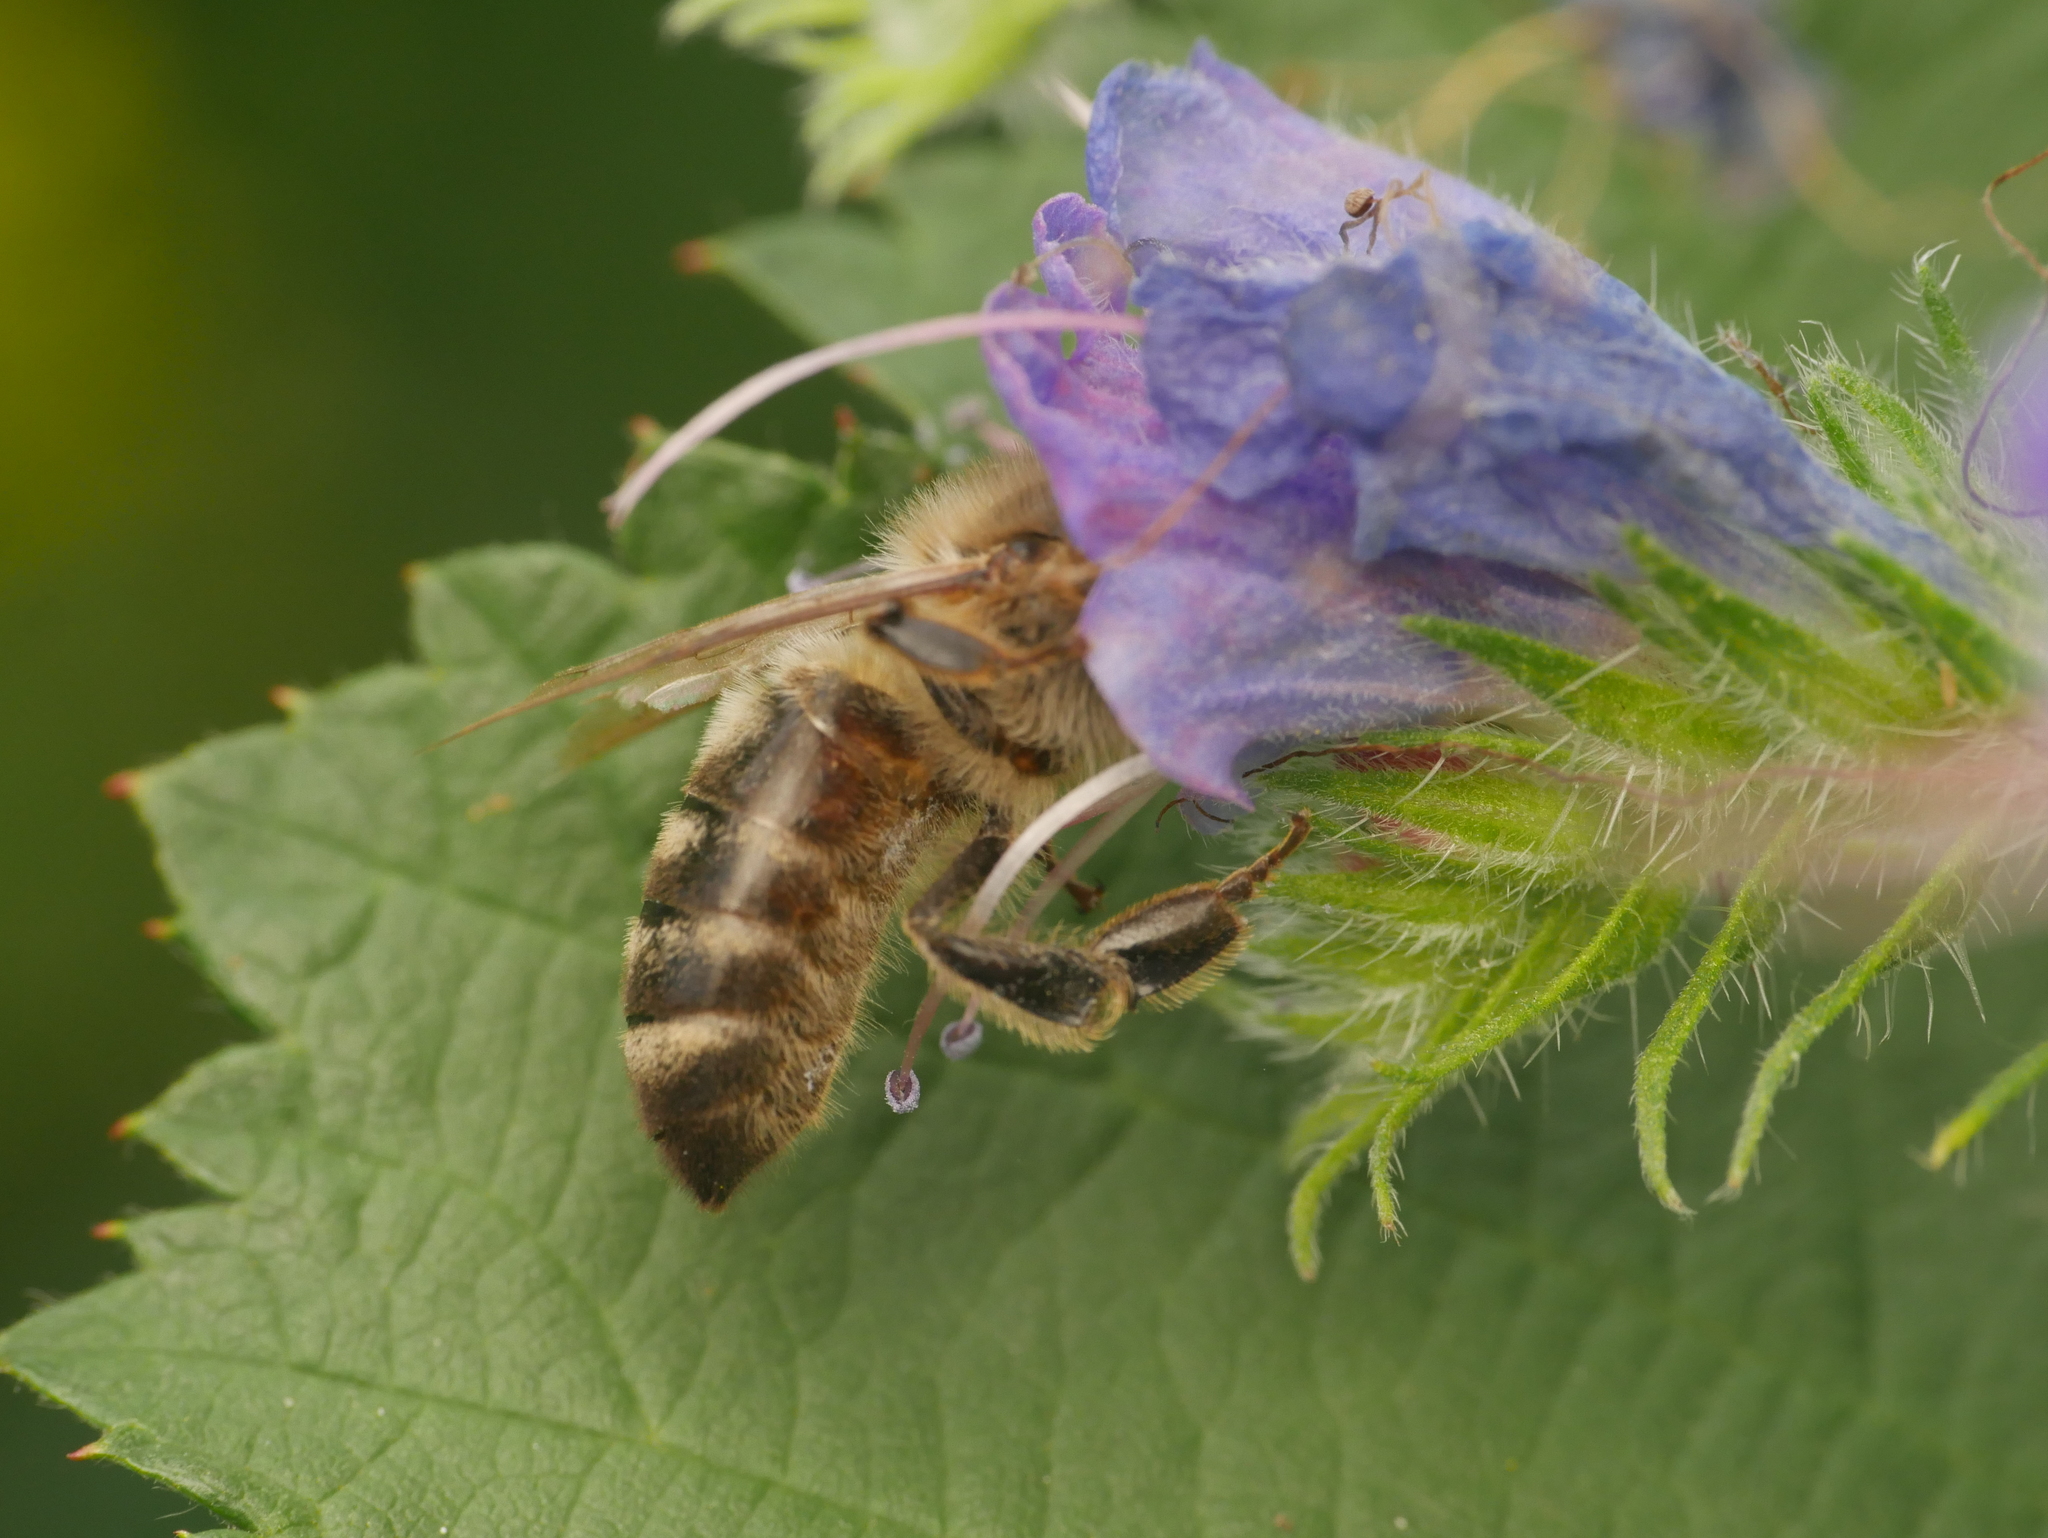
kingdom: Animalia
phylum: Arthropoda
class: Insecta
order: Hymenoptera
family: Apidae
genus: Apis
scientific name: Apis mellifera
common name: Honey bee
